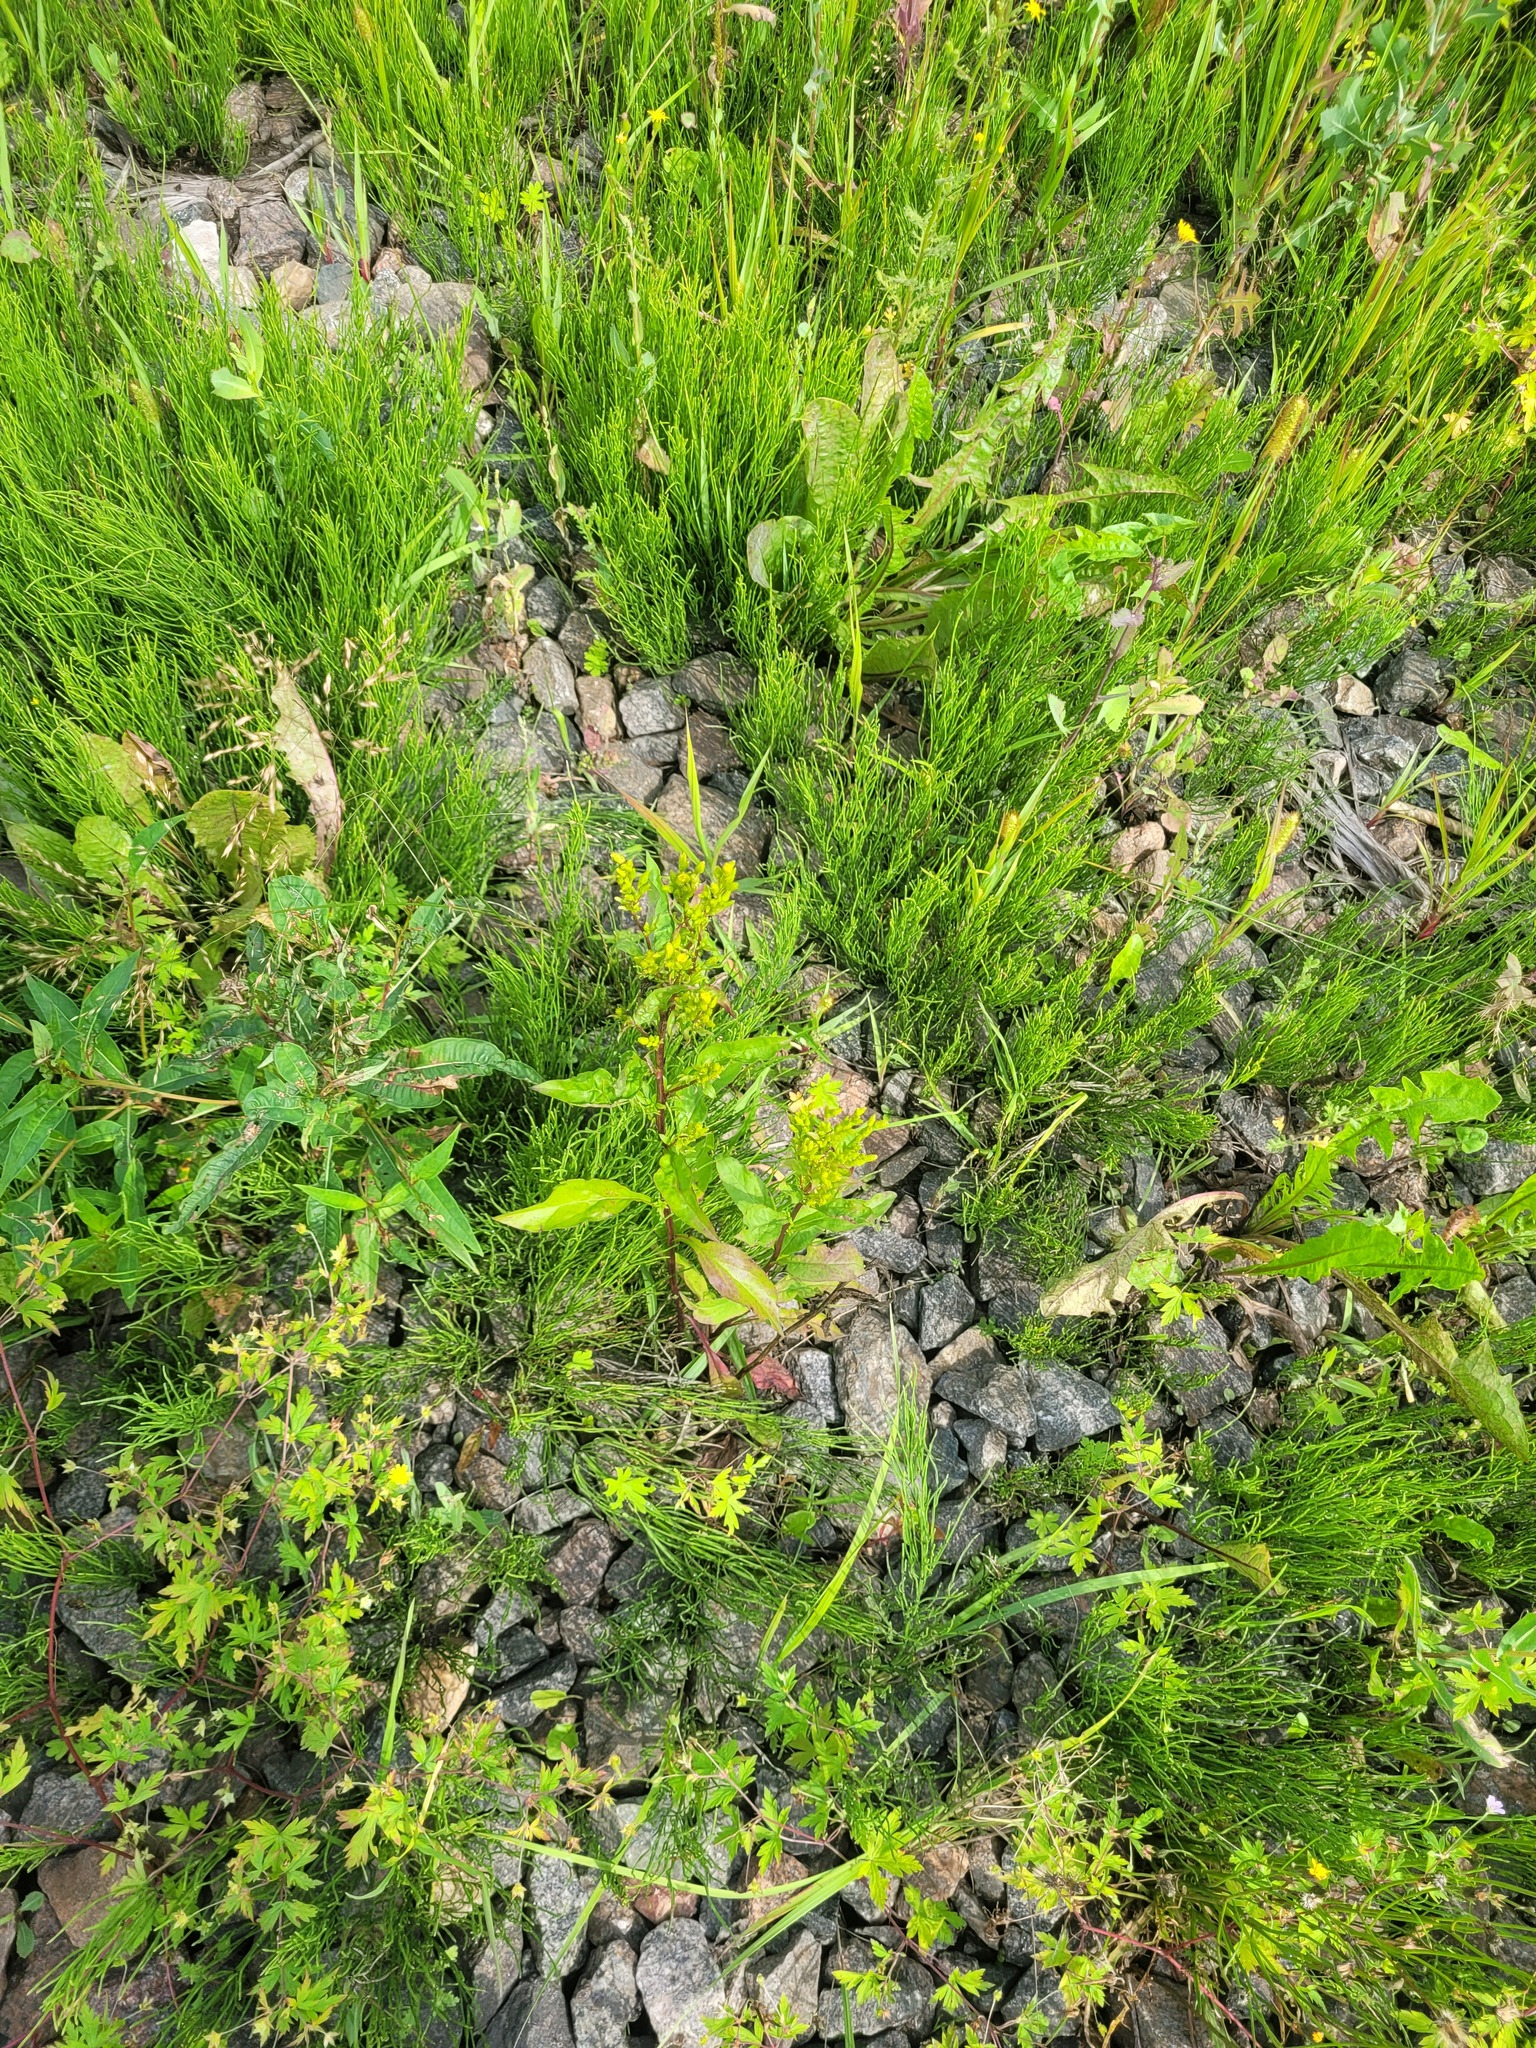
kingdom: Plantae
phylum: Tracheophyta
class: Magnoliopsida
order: Asterales
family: Asteraceae
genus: Solidago
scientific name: Solidago virgaurea
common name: Goldenrod
